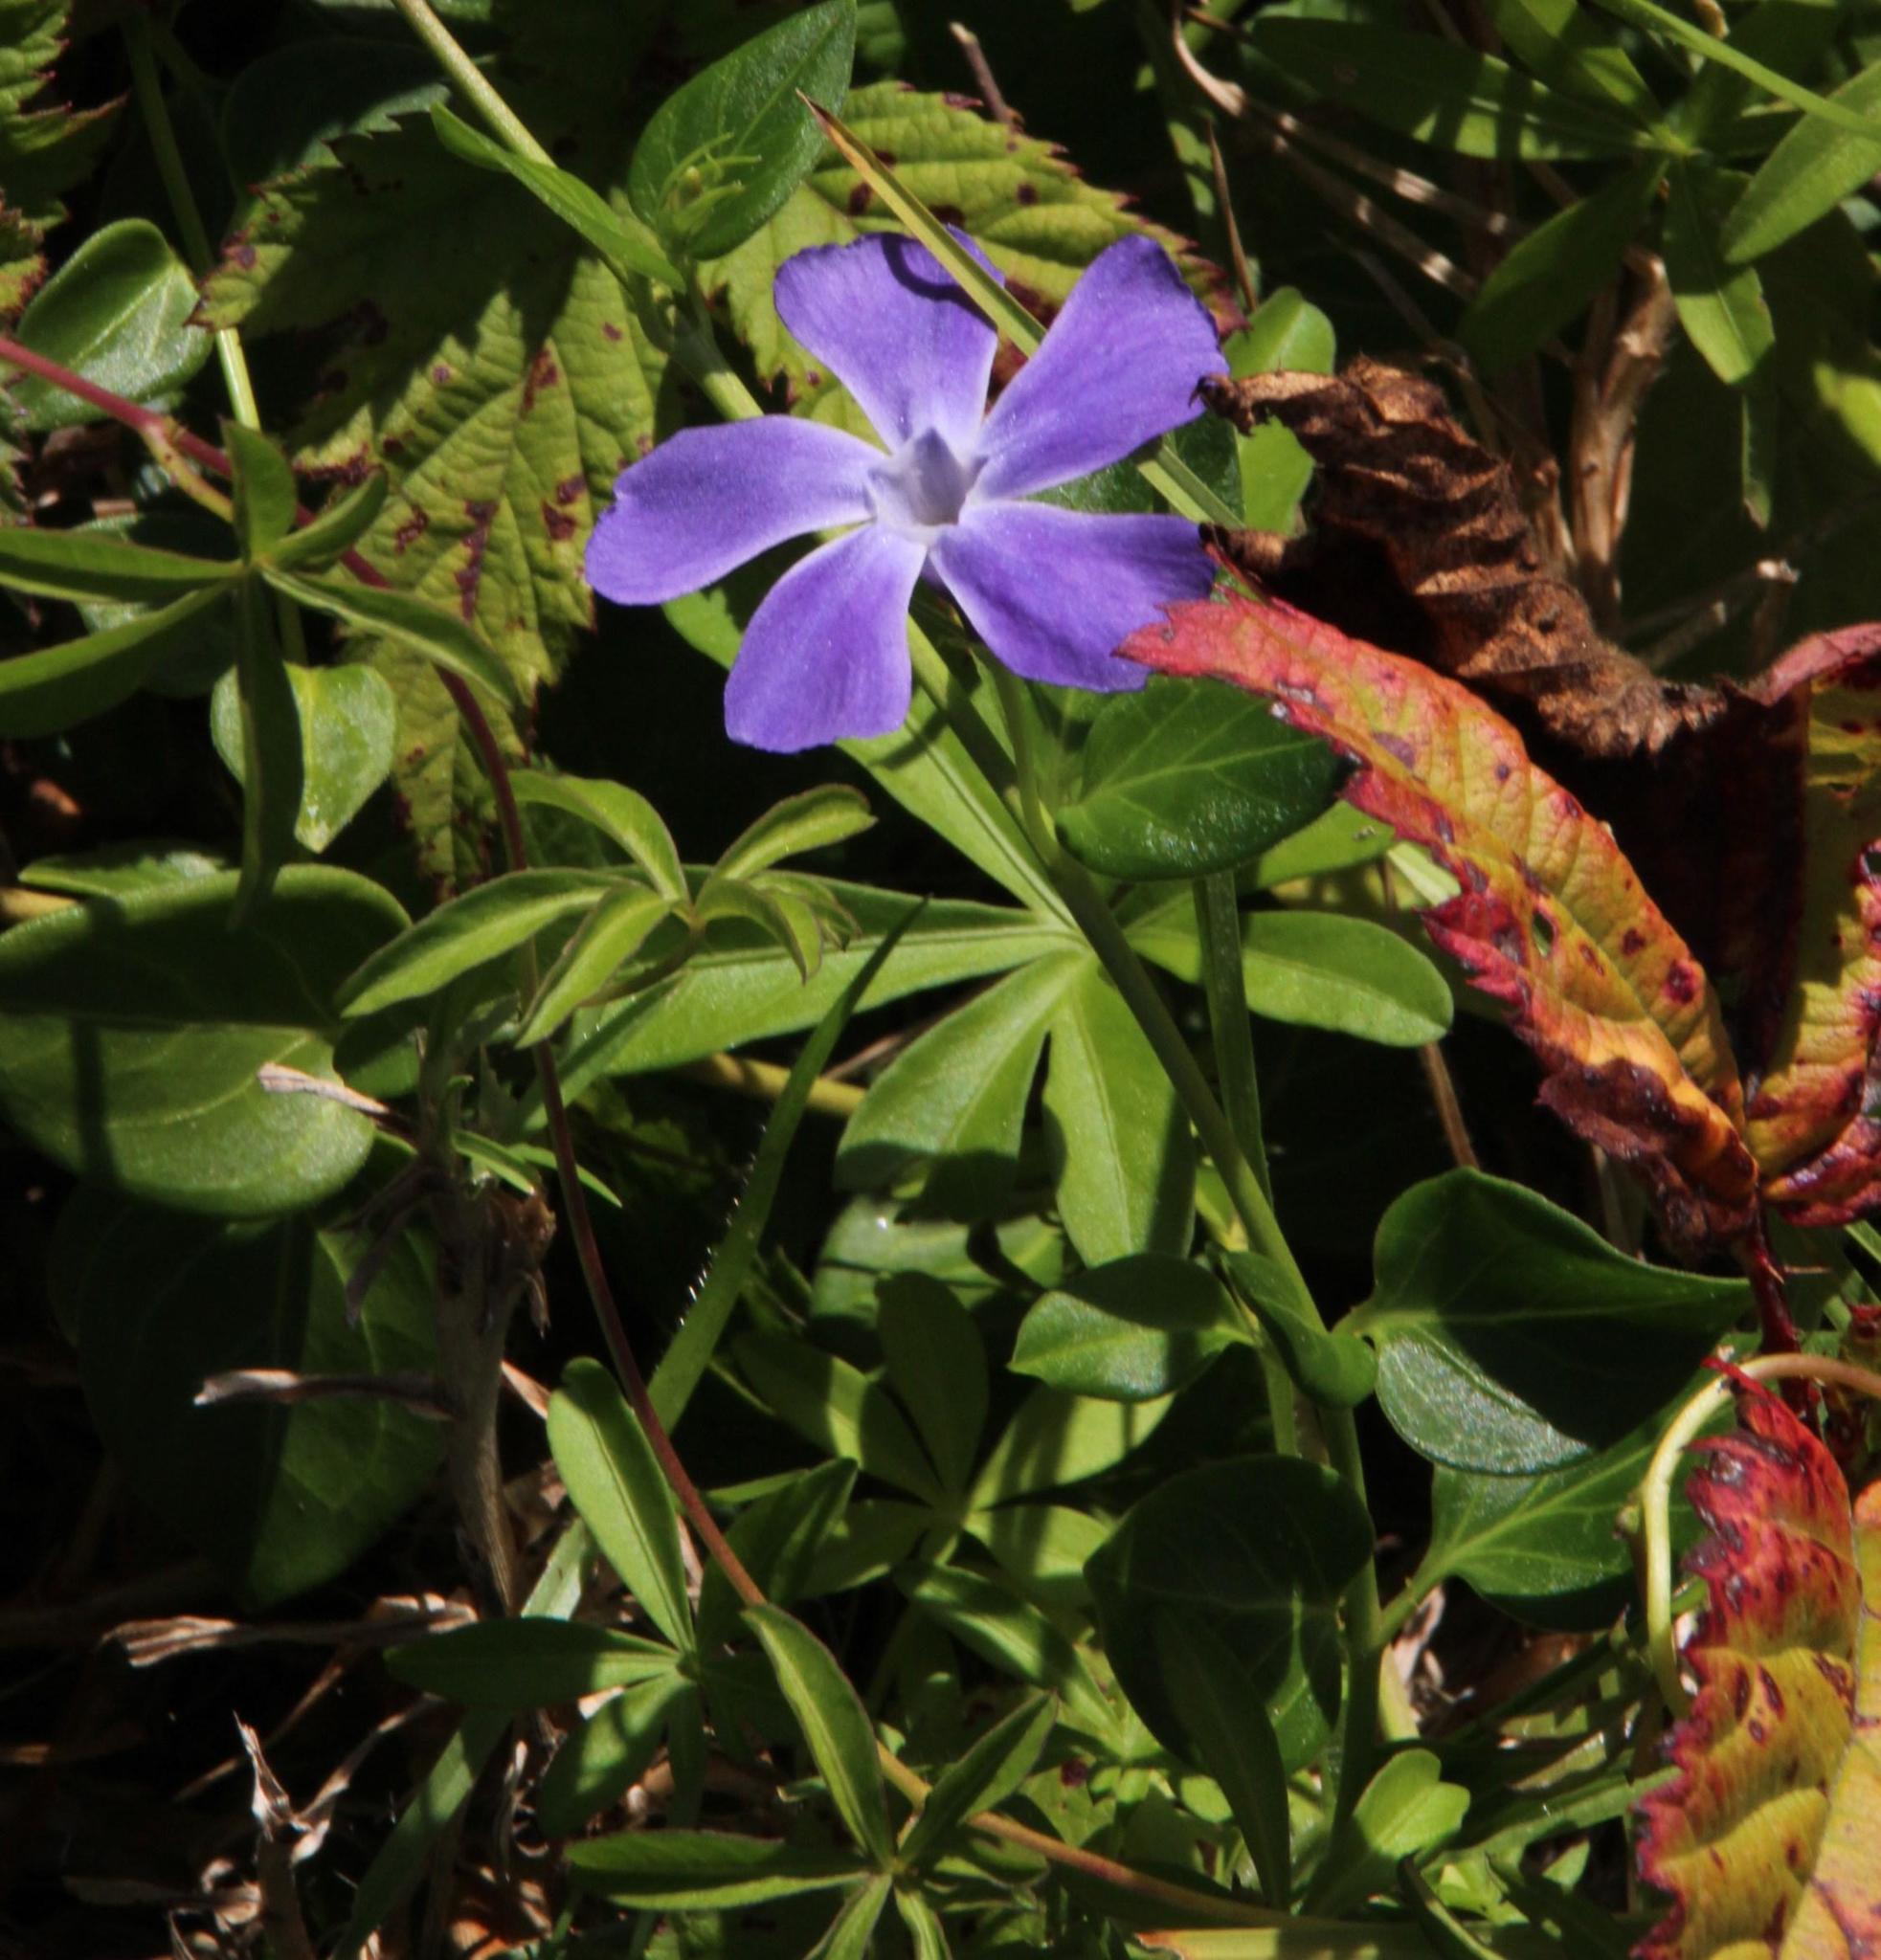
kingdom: Plantae
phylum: Tracheophyta
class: Magnoliopsida
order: Gentianales
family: Apocynaceae
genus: Vinca
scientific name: Vinca major
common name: Greater periwinkle
